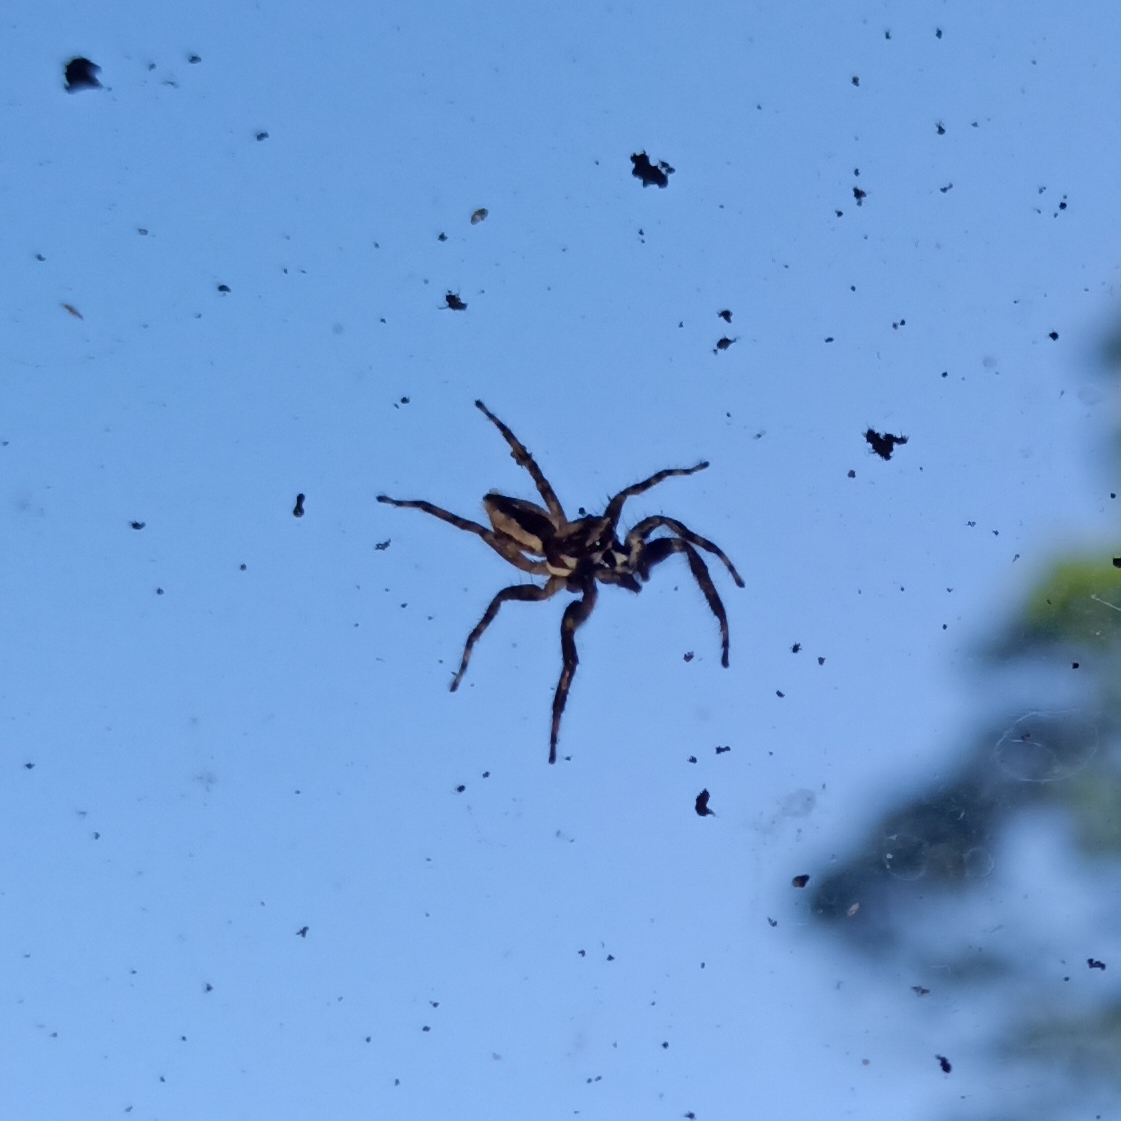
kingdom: Animalia
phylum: Arthropoda
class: Arachnida
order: Araneae
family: Salticidae
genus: Menemerus
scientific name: Menemerus bivittatus
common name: Gray wall jumper
